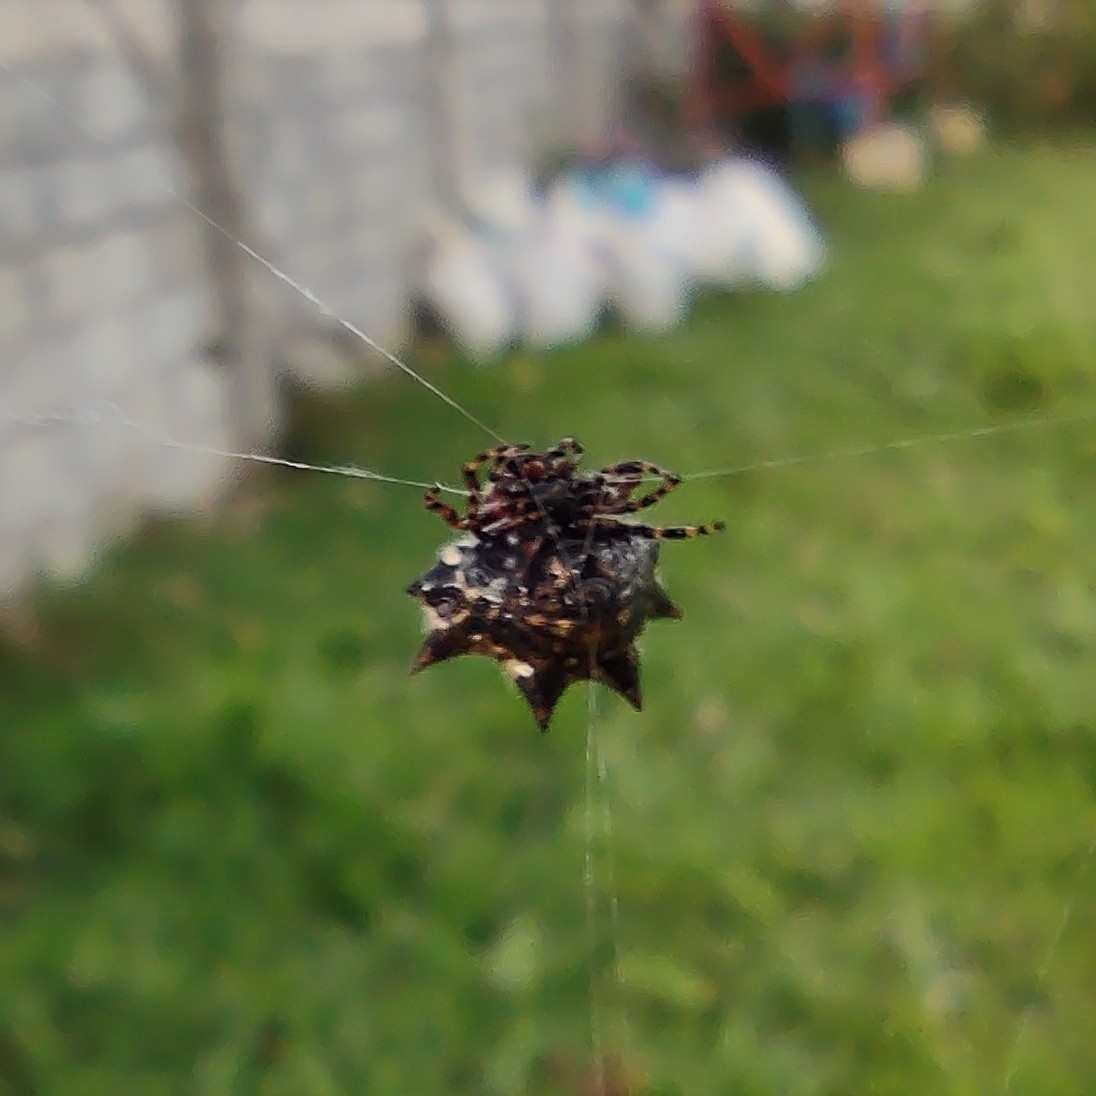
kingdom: Animalia
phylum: Arthropoda
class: Arachnida
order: Araneae
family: Araneidae
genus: Gasteracantha
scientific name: Gasteracantha kuhli
